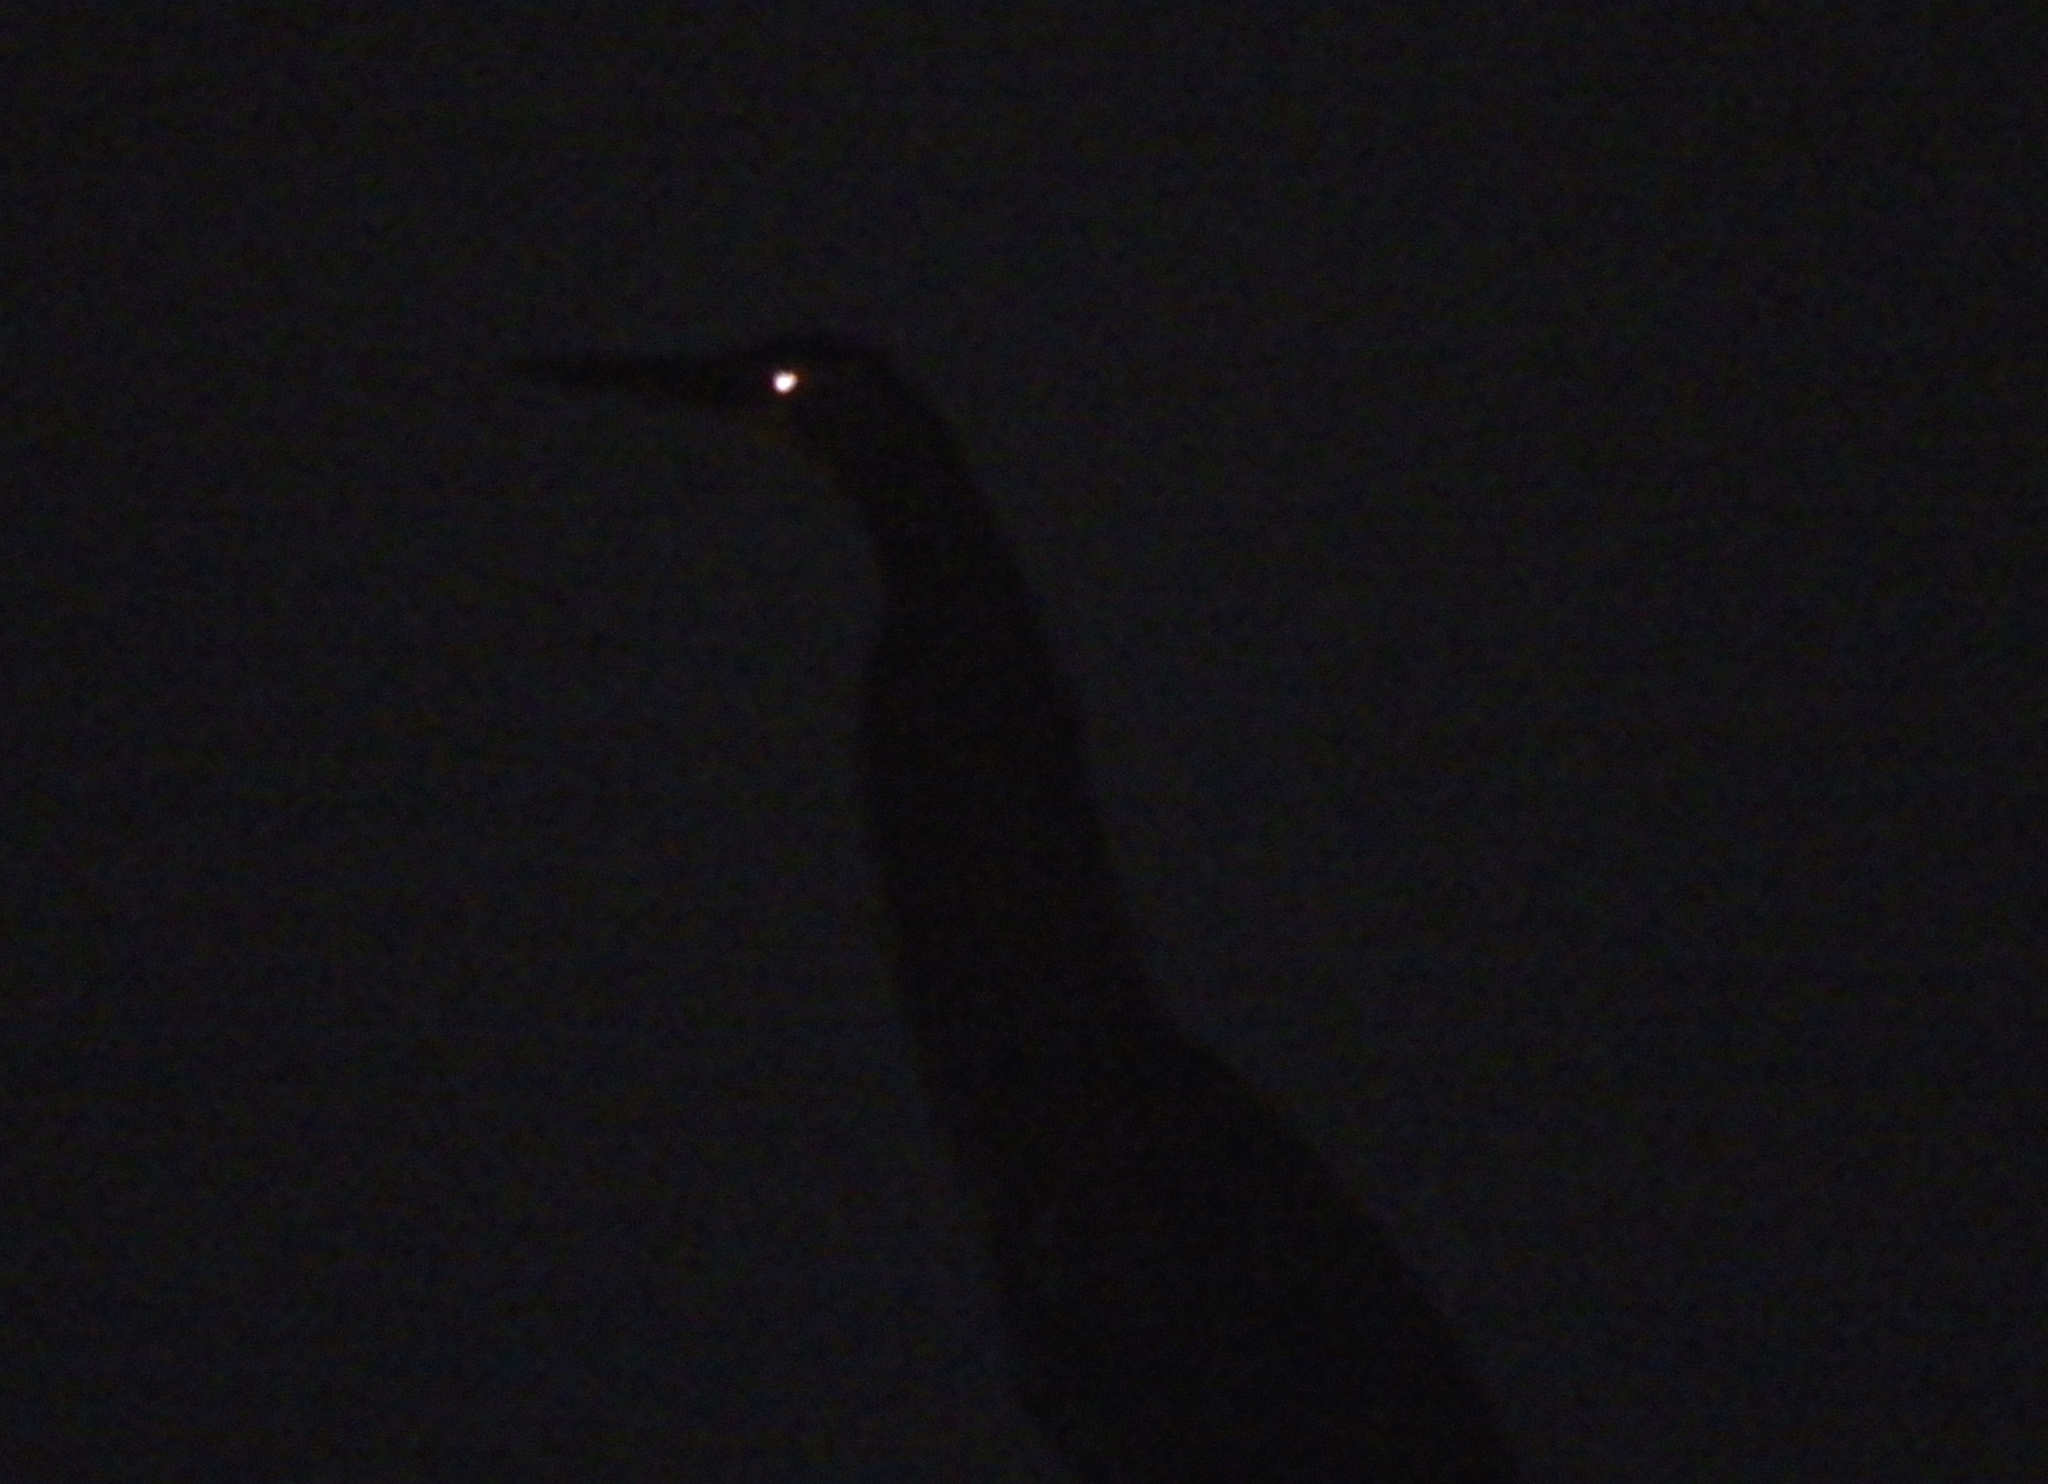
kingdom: Animalia
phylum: Chordata
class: Aves
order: Pelecaniformes
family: Ardeidae
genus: Tigrisoma
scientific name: Tigrisoma mexicanum
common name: Bare-throated tiger-heron
